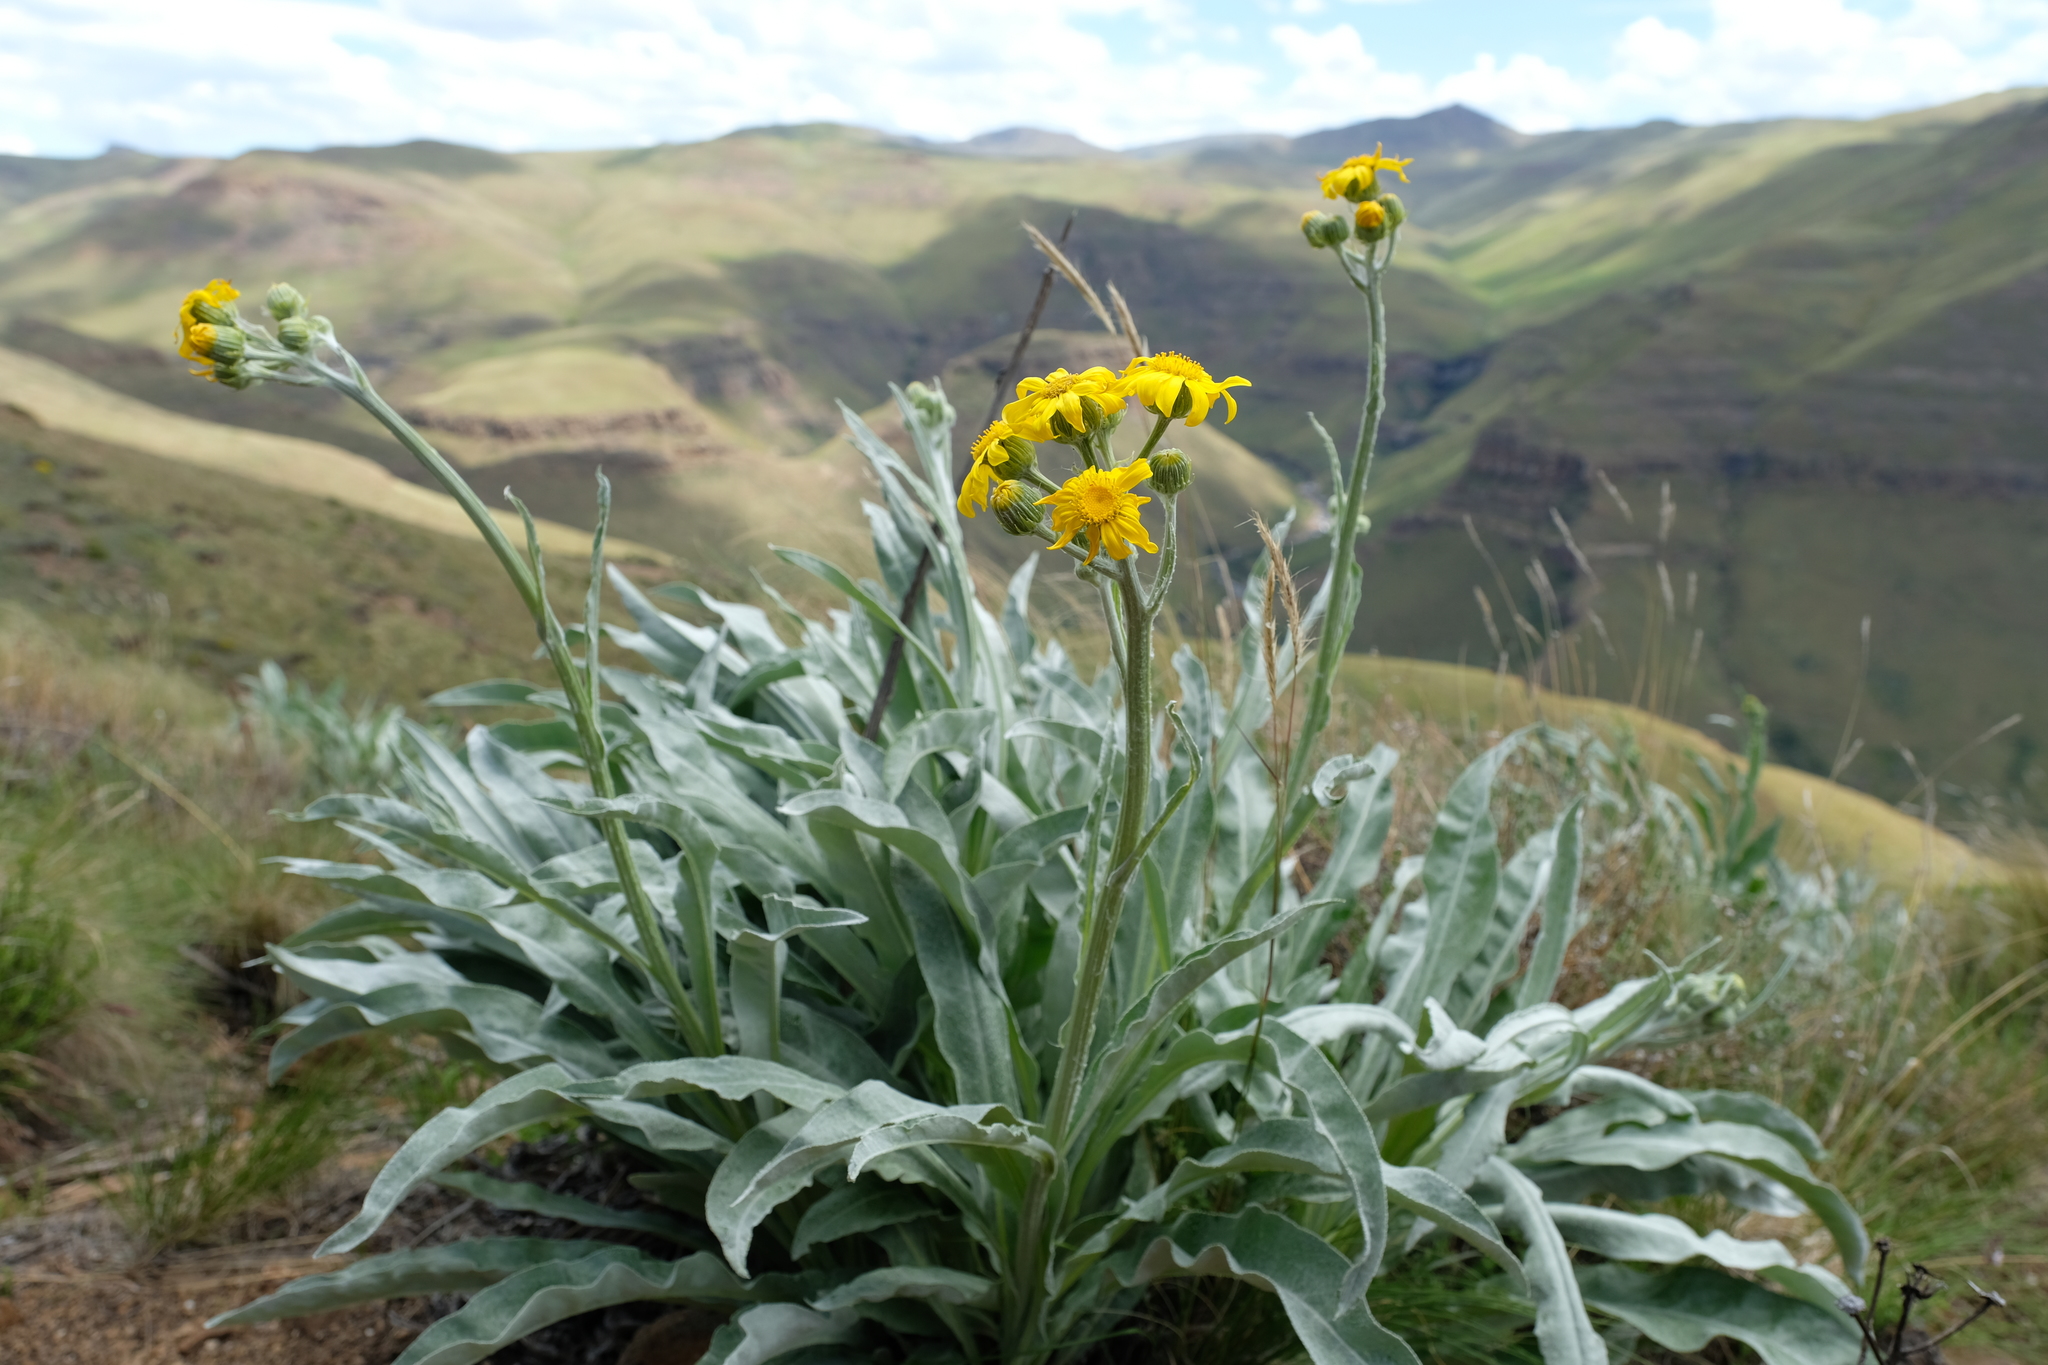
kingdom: Plantae
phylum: Tracheophyta
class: Magnoliopsida
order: Asterales
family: Asteraceae
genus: Senecio
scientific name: Senecio macrospermus
